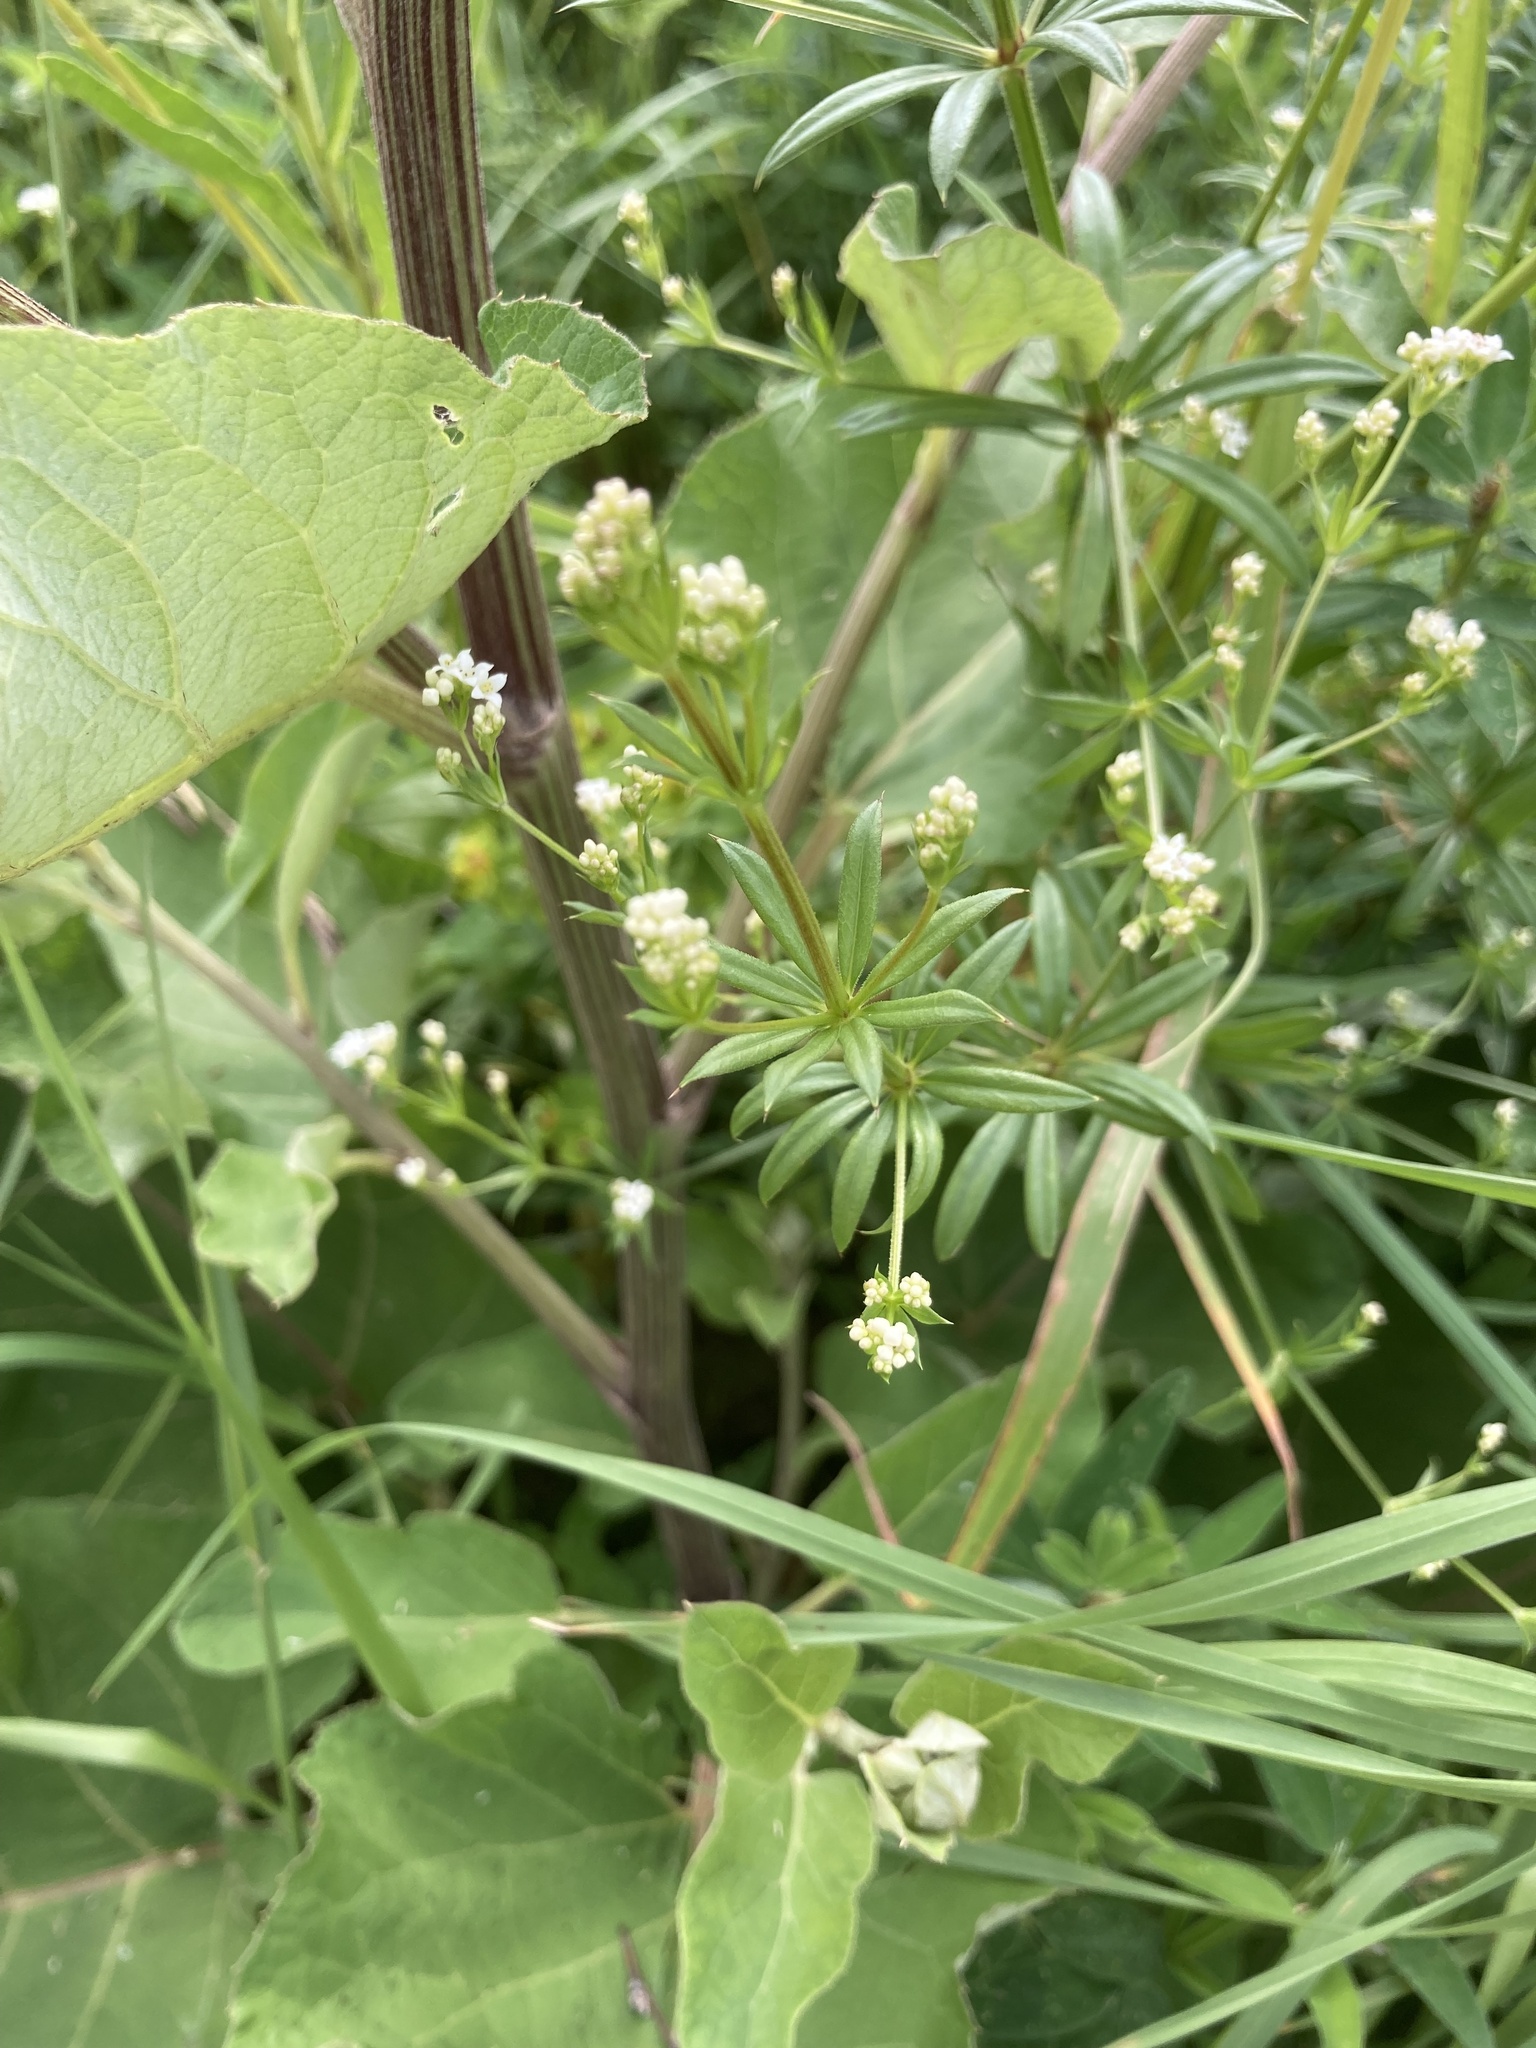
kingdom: Plantae
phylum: Tracheophyta
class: Magnoliopsida
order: Gentianales
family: Rubiaceae
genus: Galium
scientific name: Galium rivale
